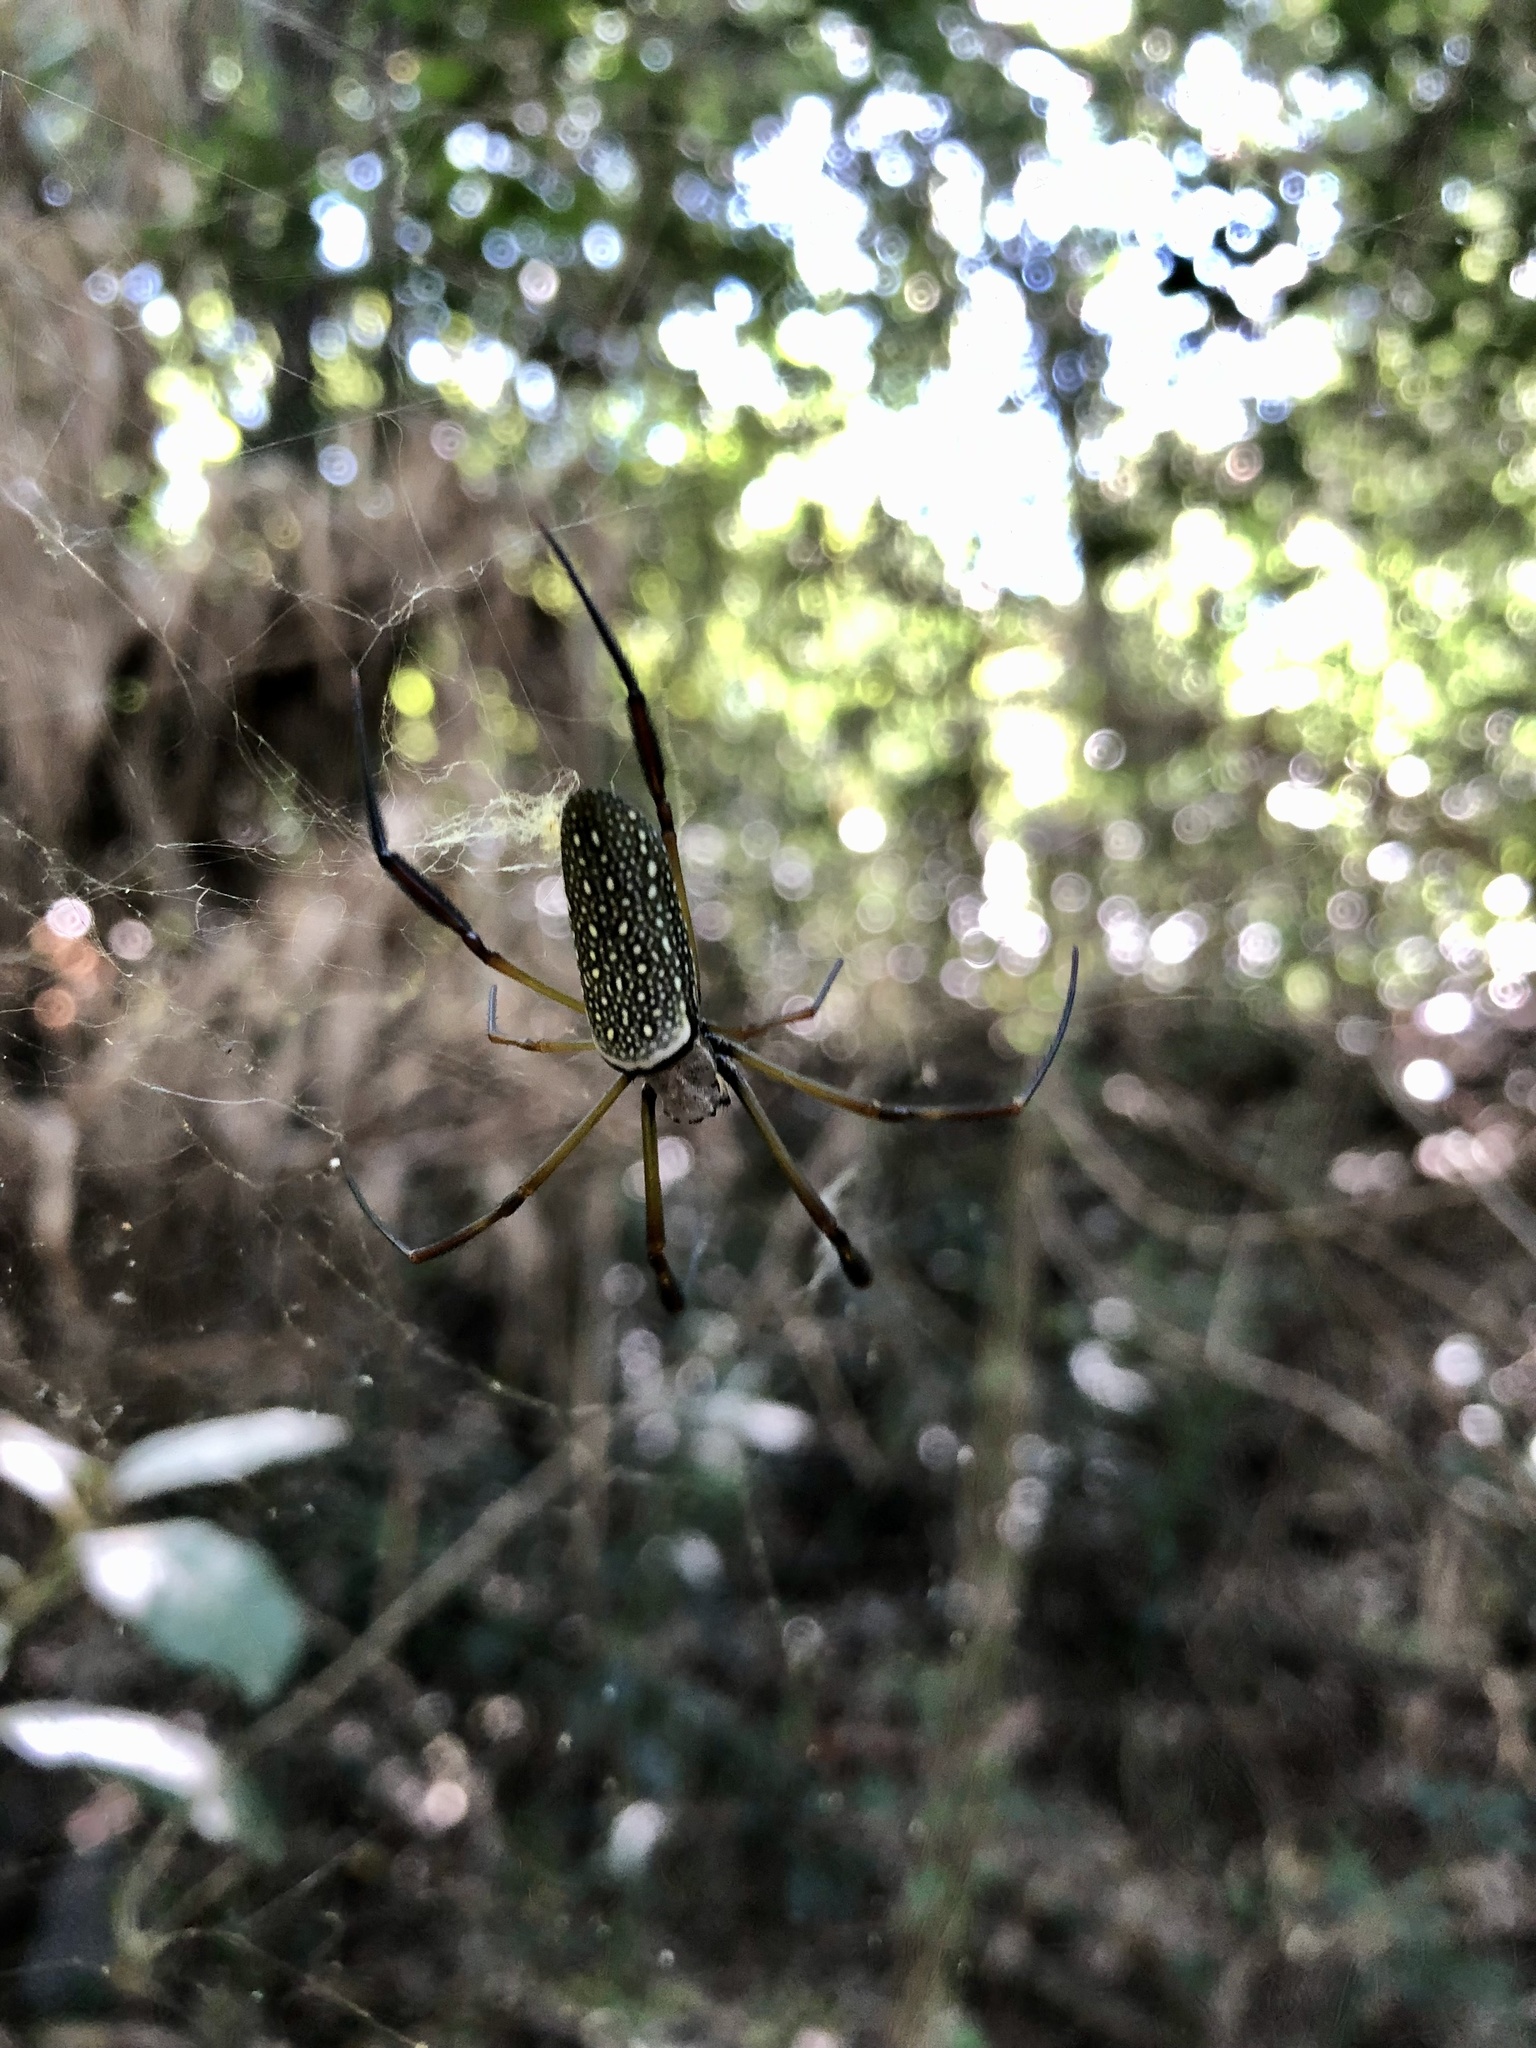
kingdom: Animalia
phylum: Arthropoda
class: Arachnida
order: Araneae
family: Araneidae
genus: Trichonephila
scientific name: Trichonephila clavipes
